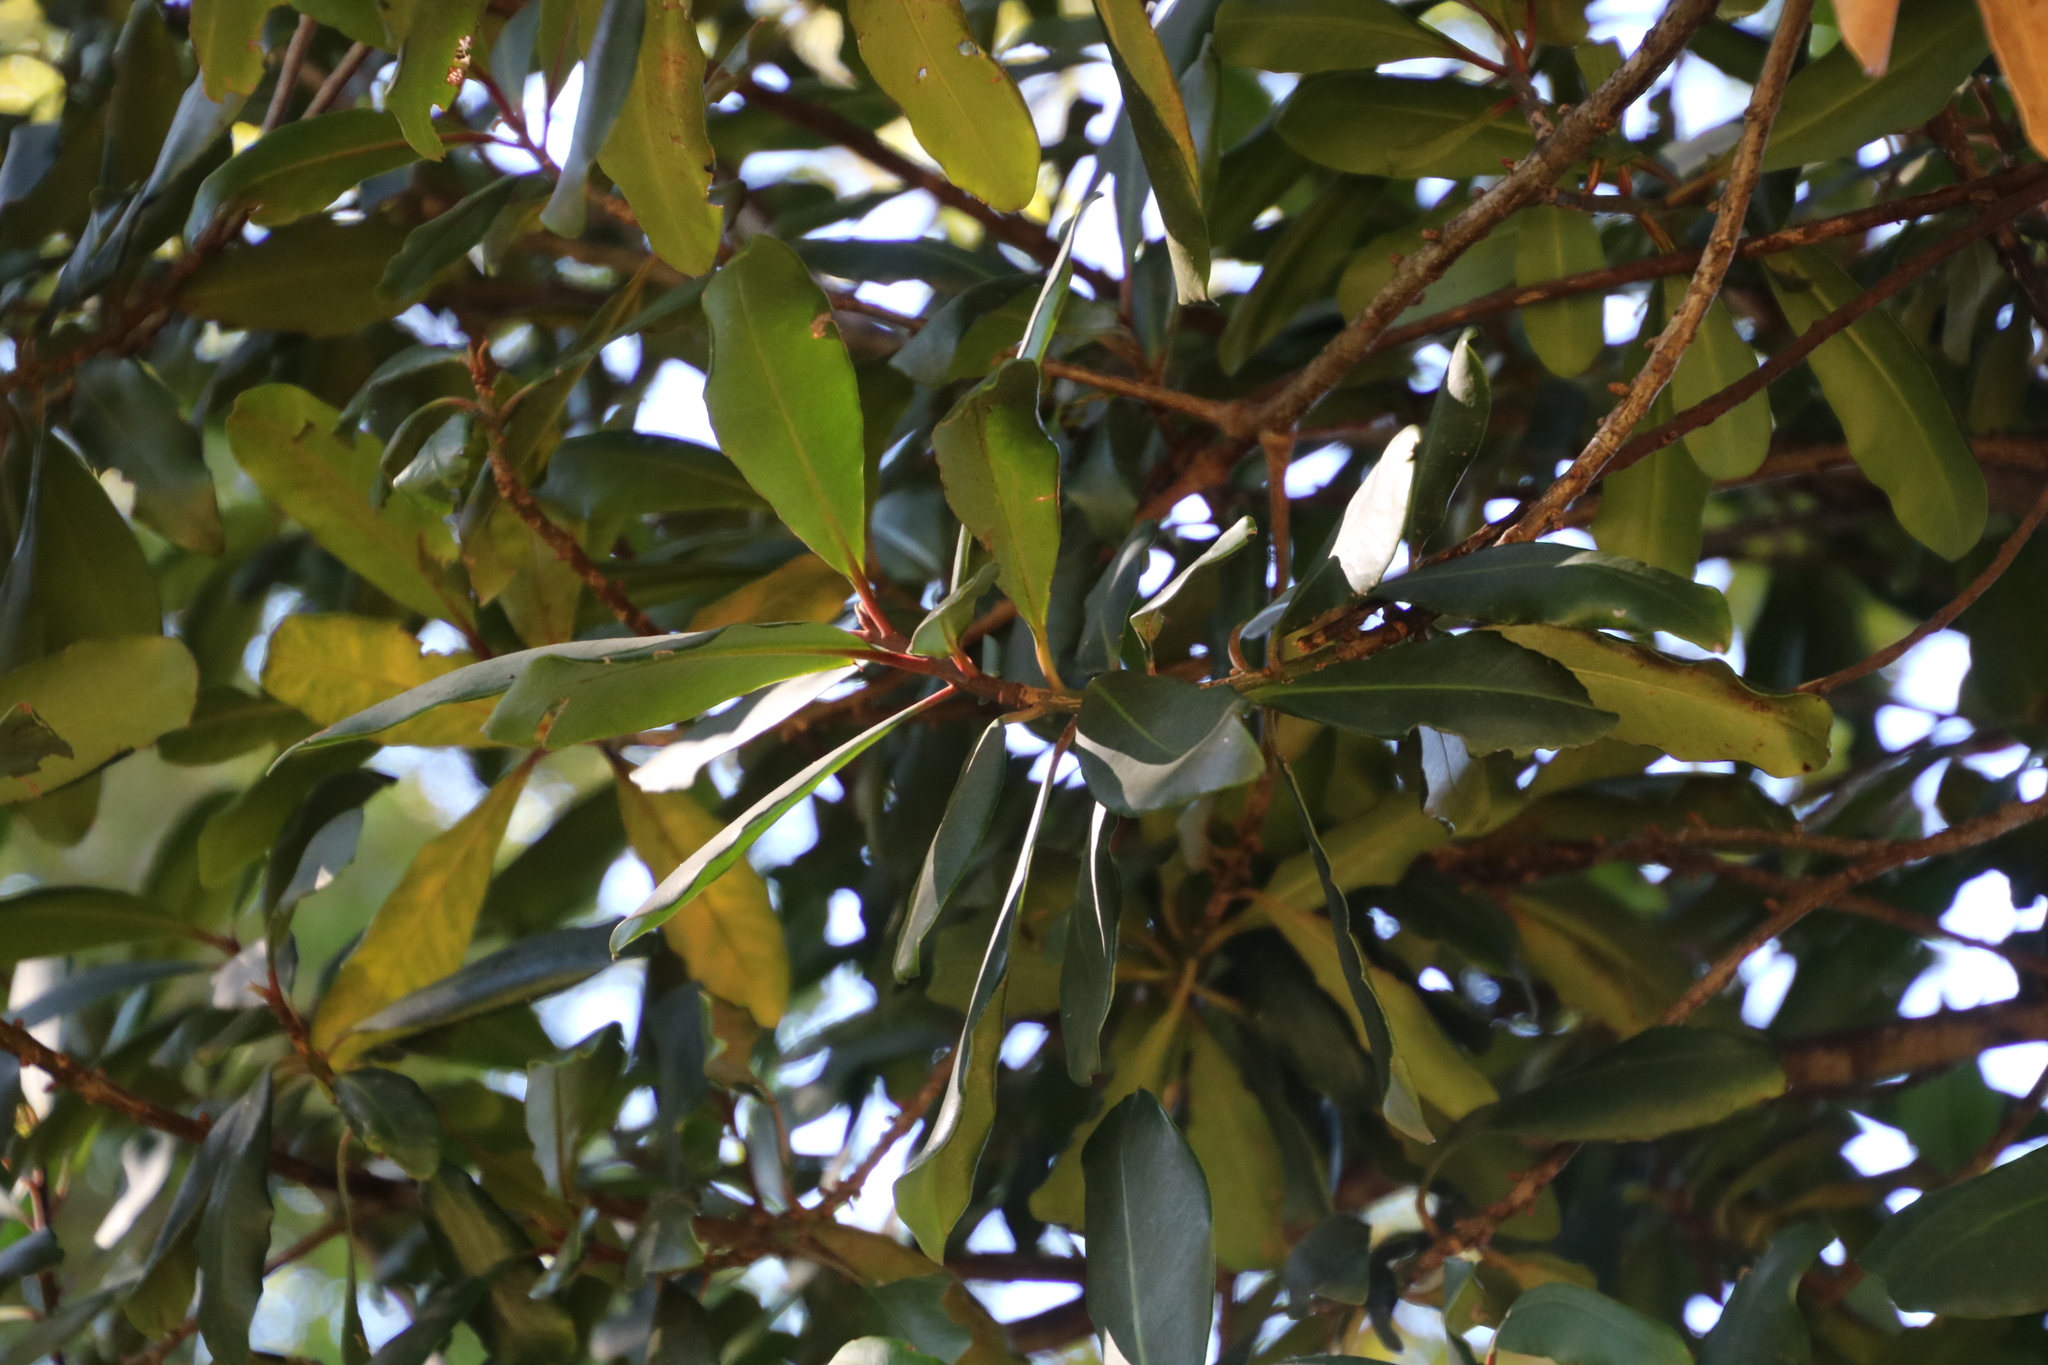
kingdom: Plantae
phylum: Tracheophyta
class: Magnoliopsida
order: Ericales
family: Primulaceae
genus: Myrsine
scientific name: Myrsine melanophloeos
